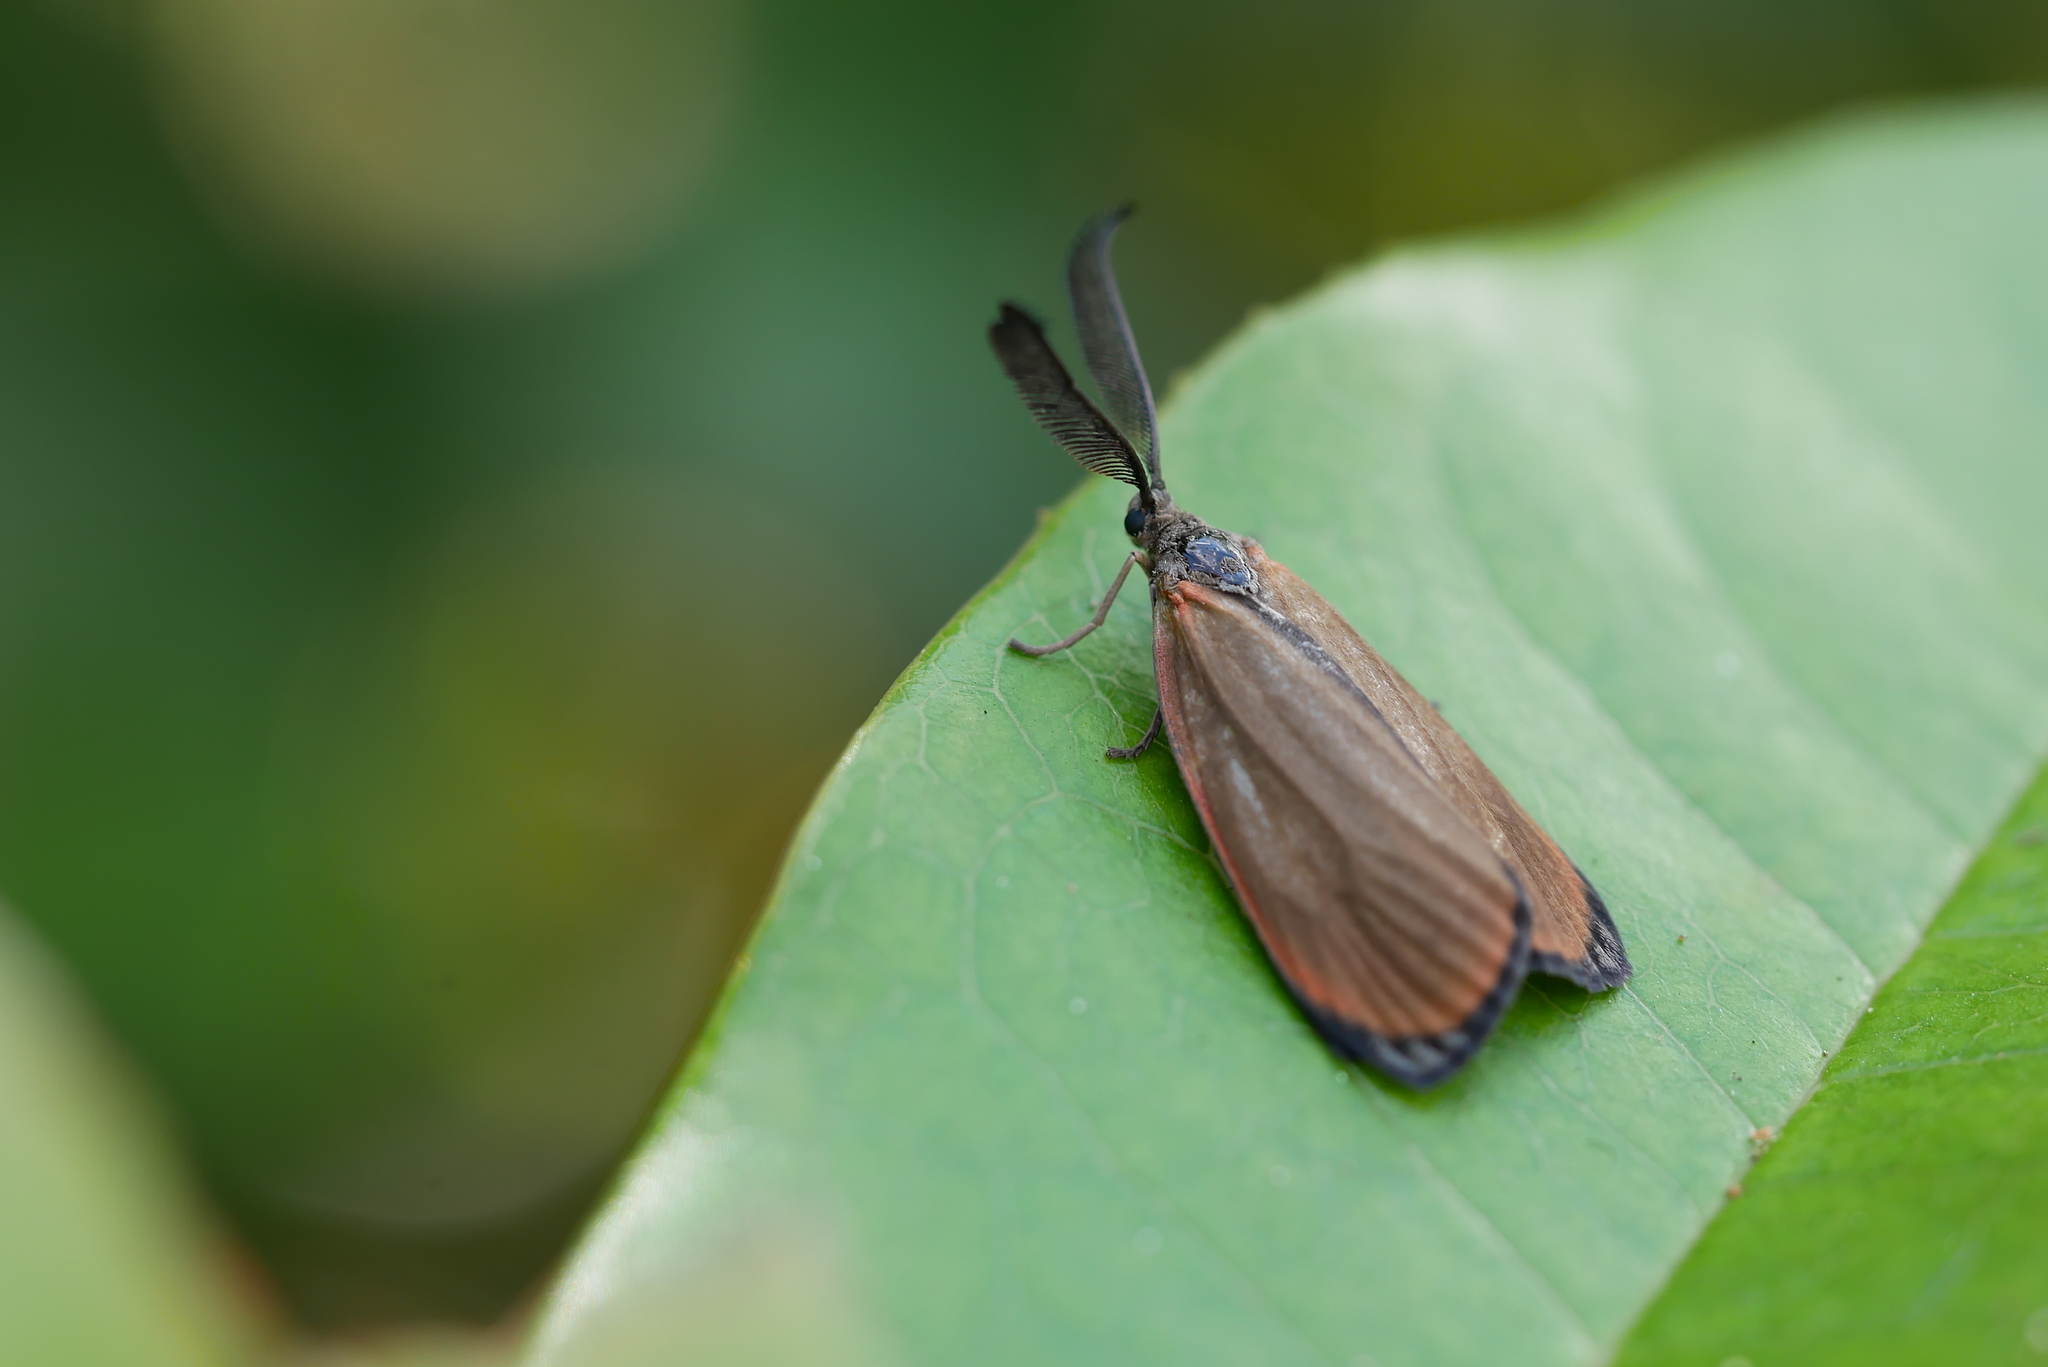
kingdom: Animalia
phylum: Arthropoda
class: Insecta
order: Lepidoptera
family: Zygaenidae
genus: Rhodopsona
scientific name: Rhodopsona marginatus
